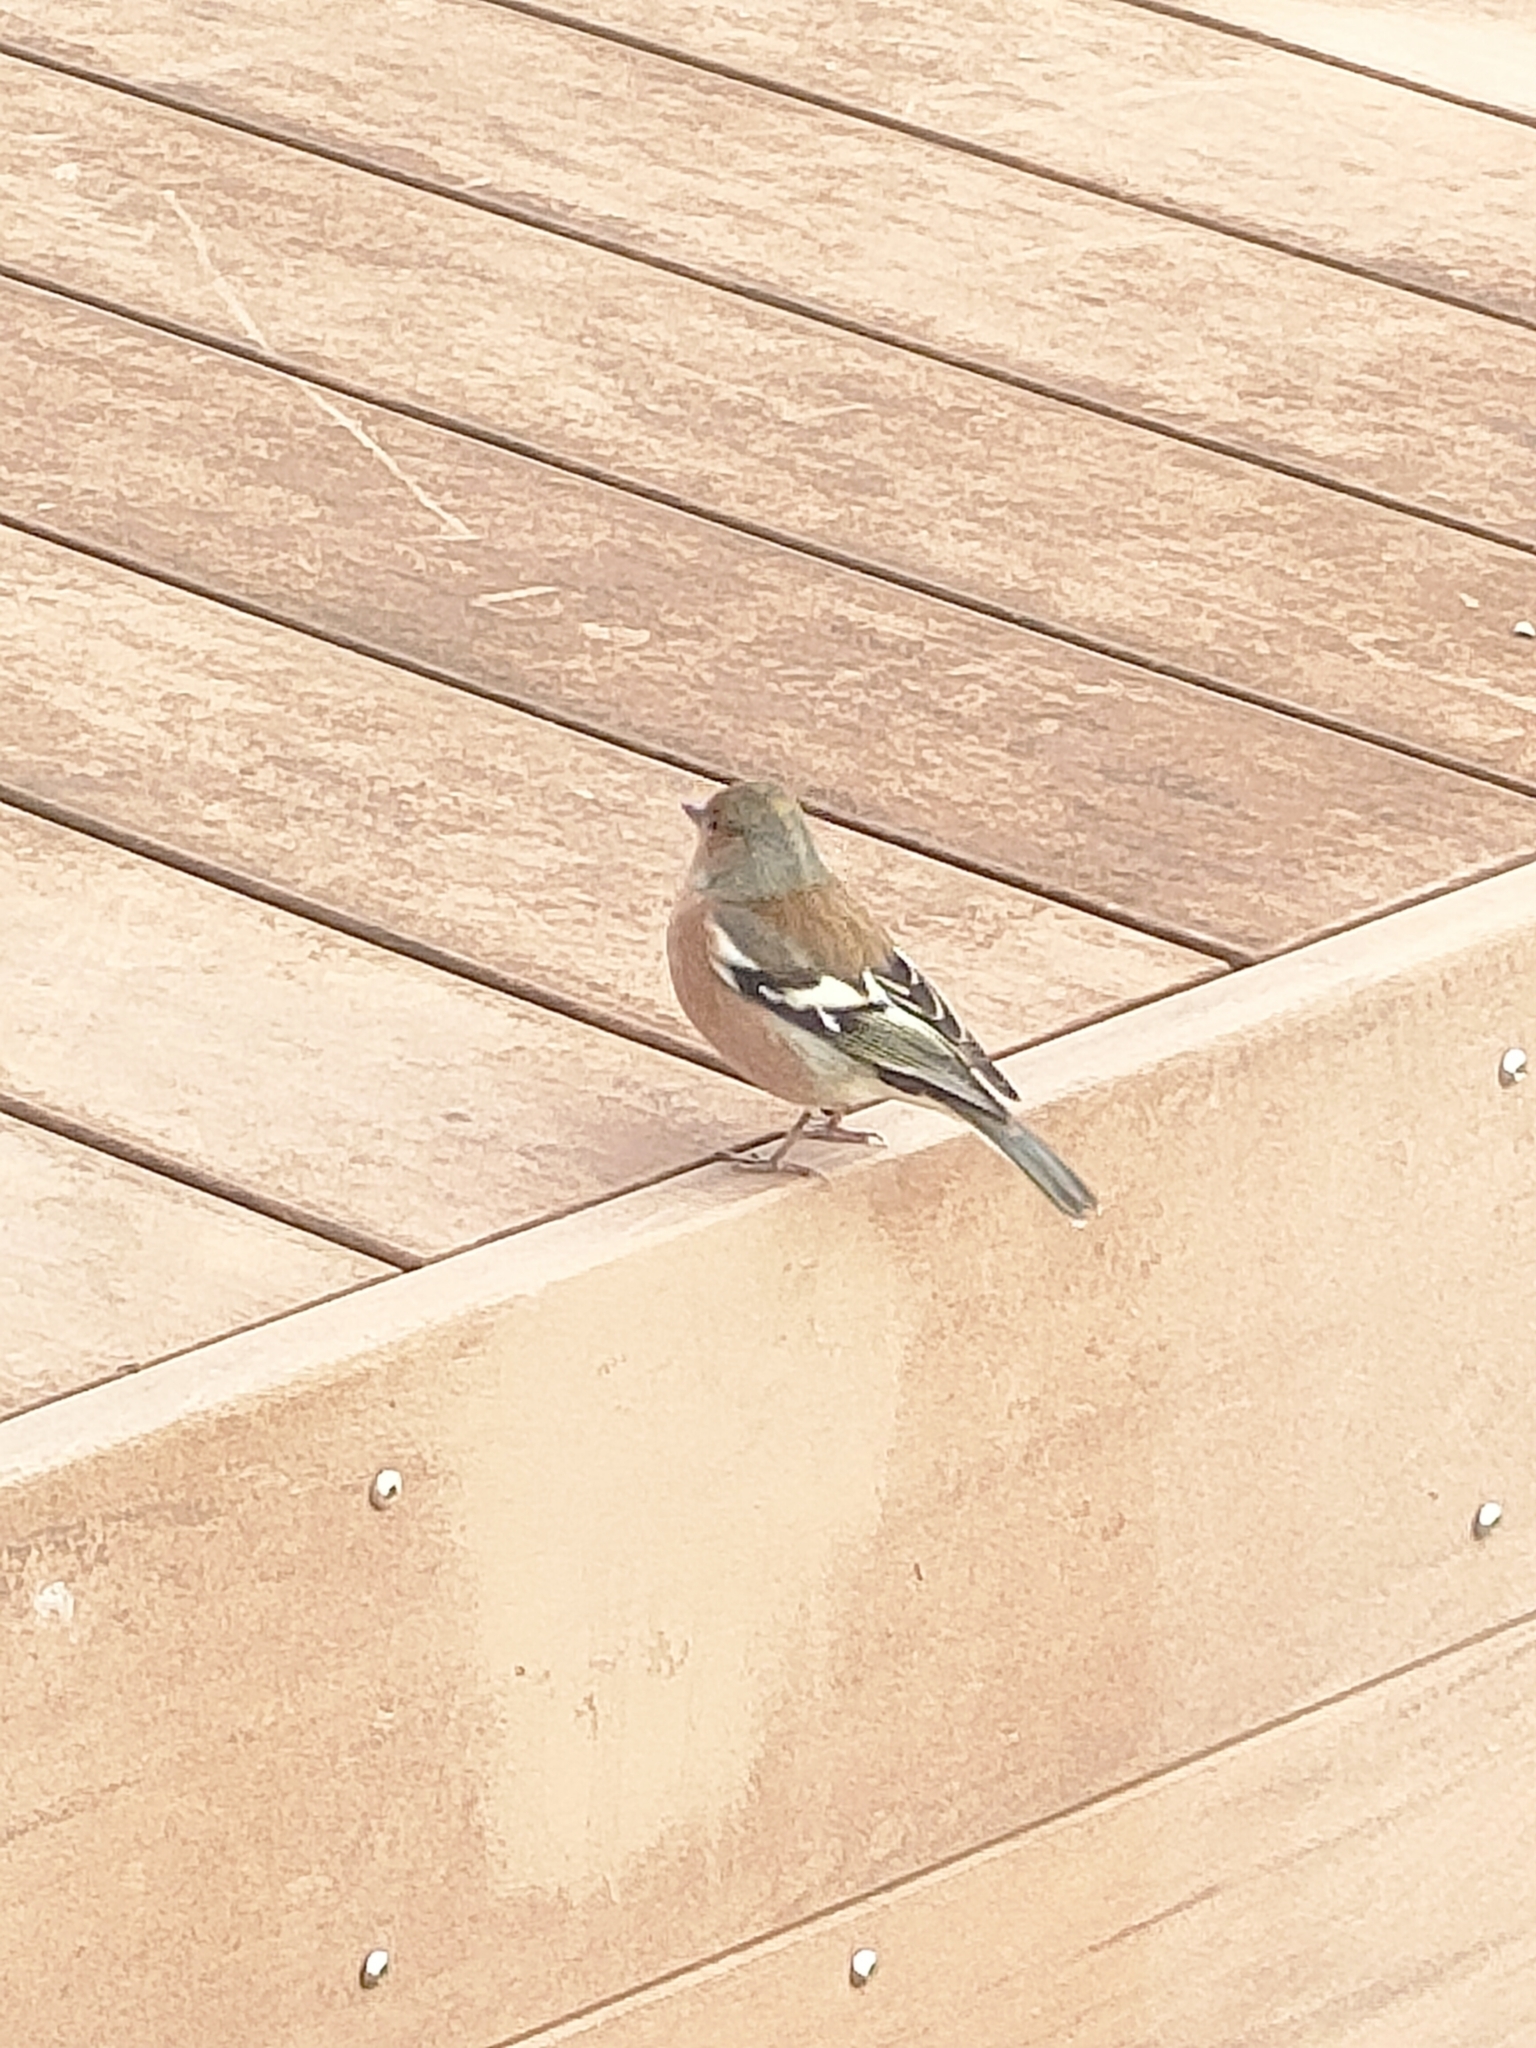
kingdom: Animalia
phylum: Chordata
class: Aves
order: Passeriformes
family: Fringillidae
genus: Fringilla
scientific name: Fringilla coelebs
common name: Common chaffinch
